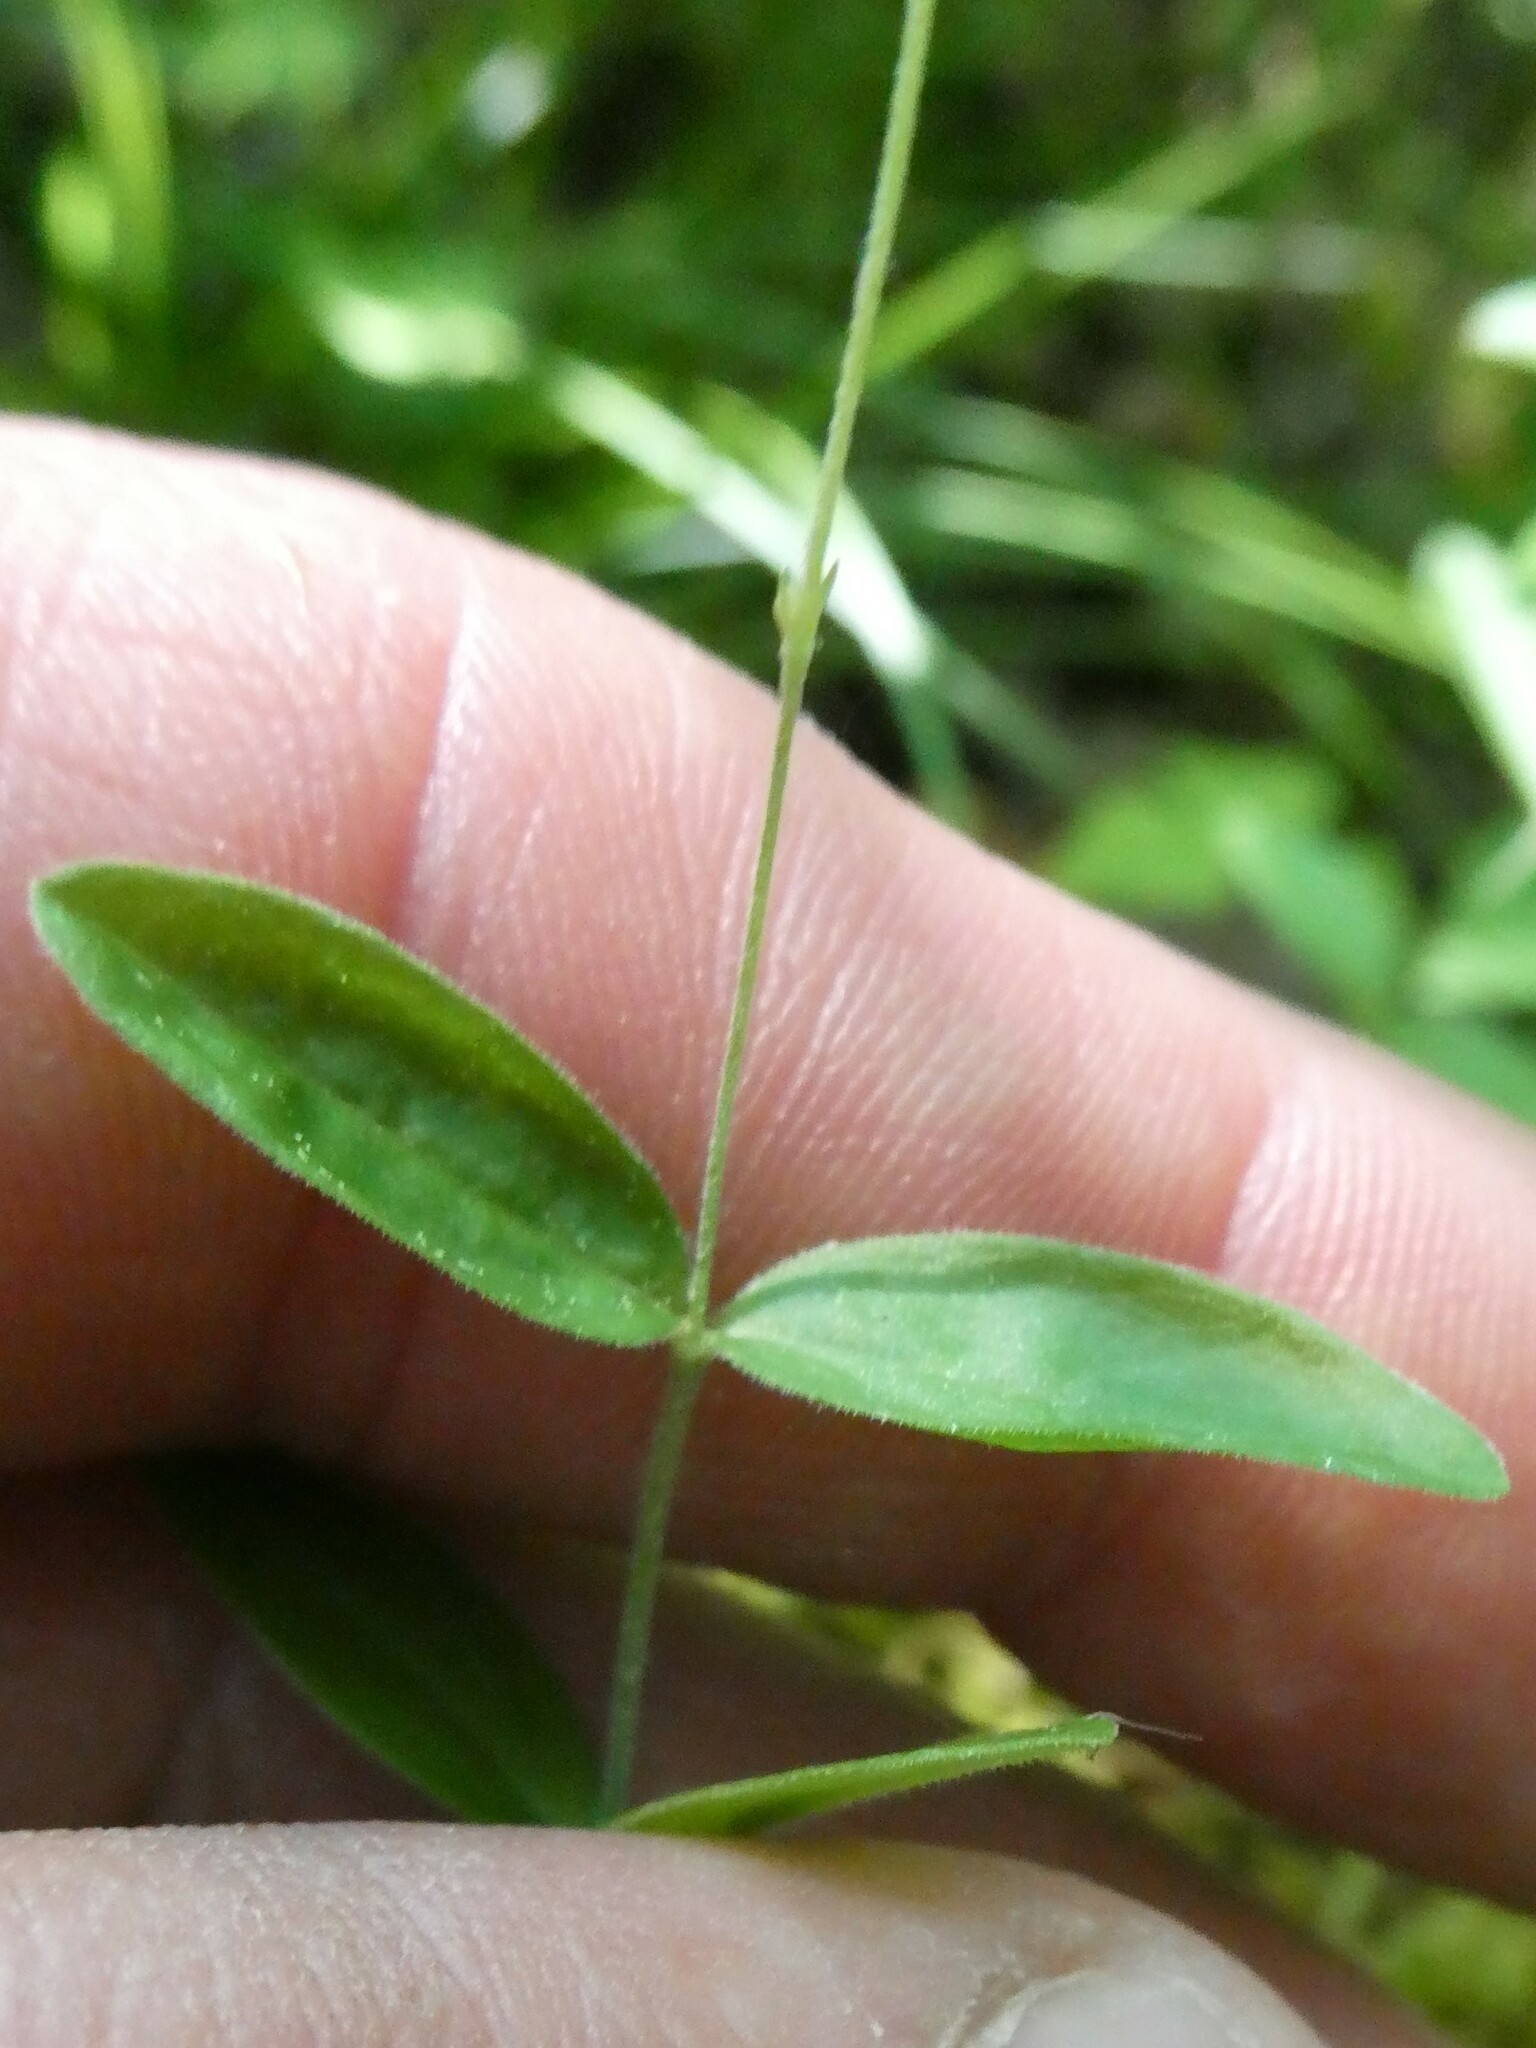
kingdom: Plantae
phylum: Tracheophyta
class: Magnoliopsida
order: Caryophyllales
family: Caryophyllaceae
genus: Moehringia
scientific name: Moehringia lateriflora
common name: Blunt-leaved sandwort
